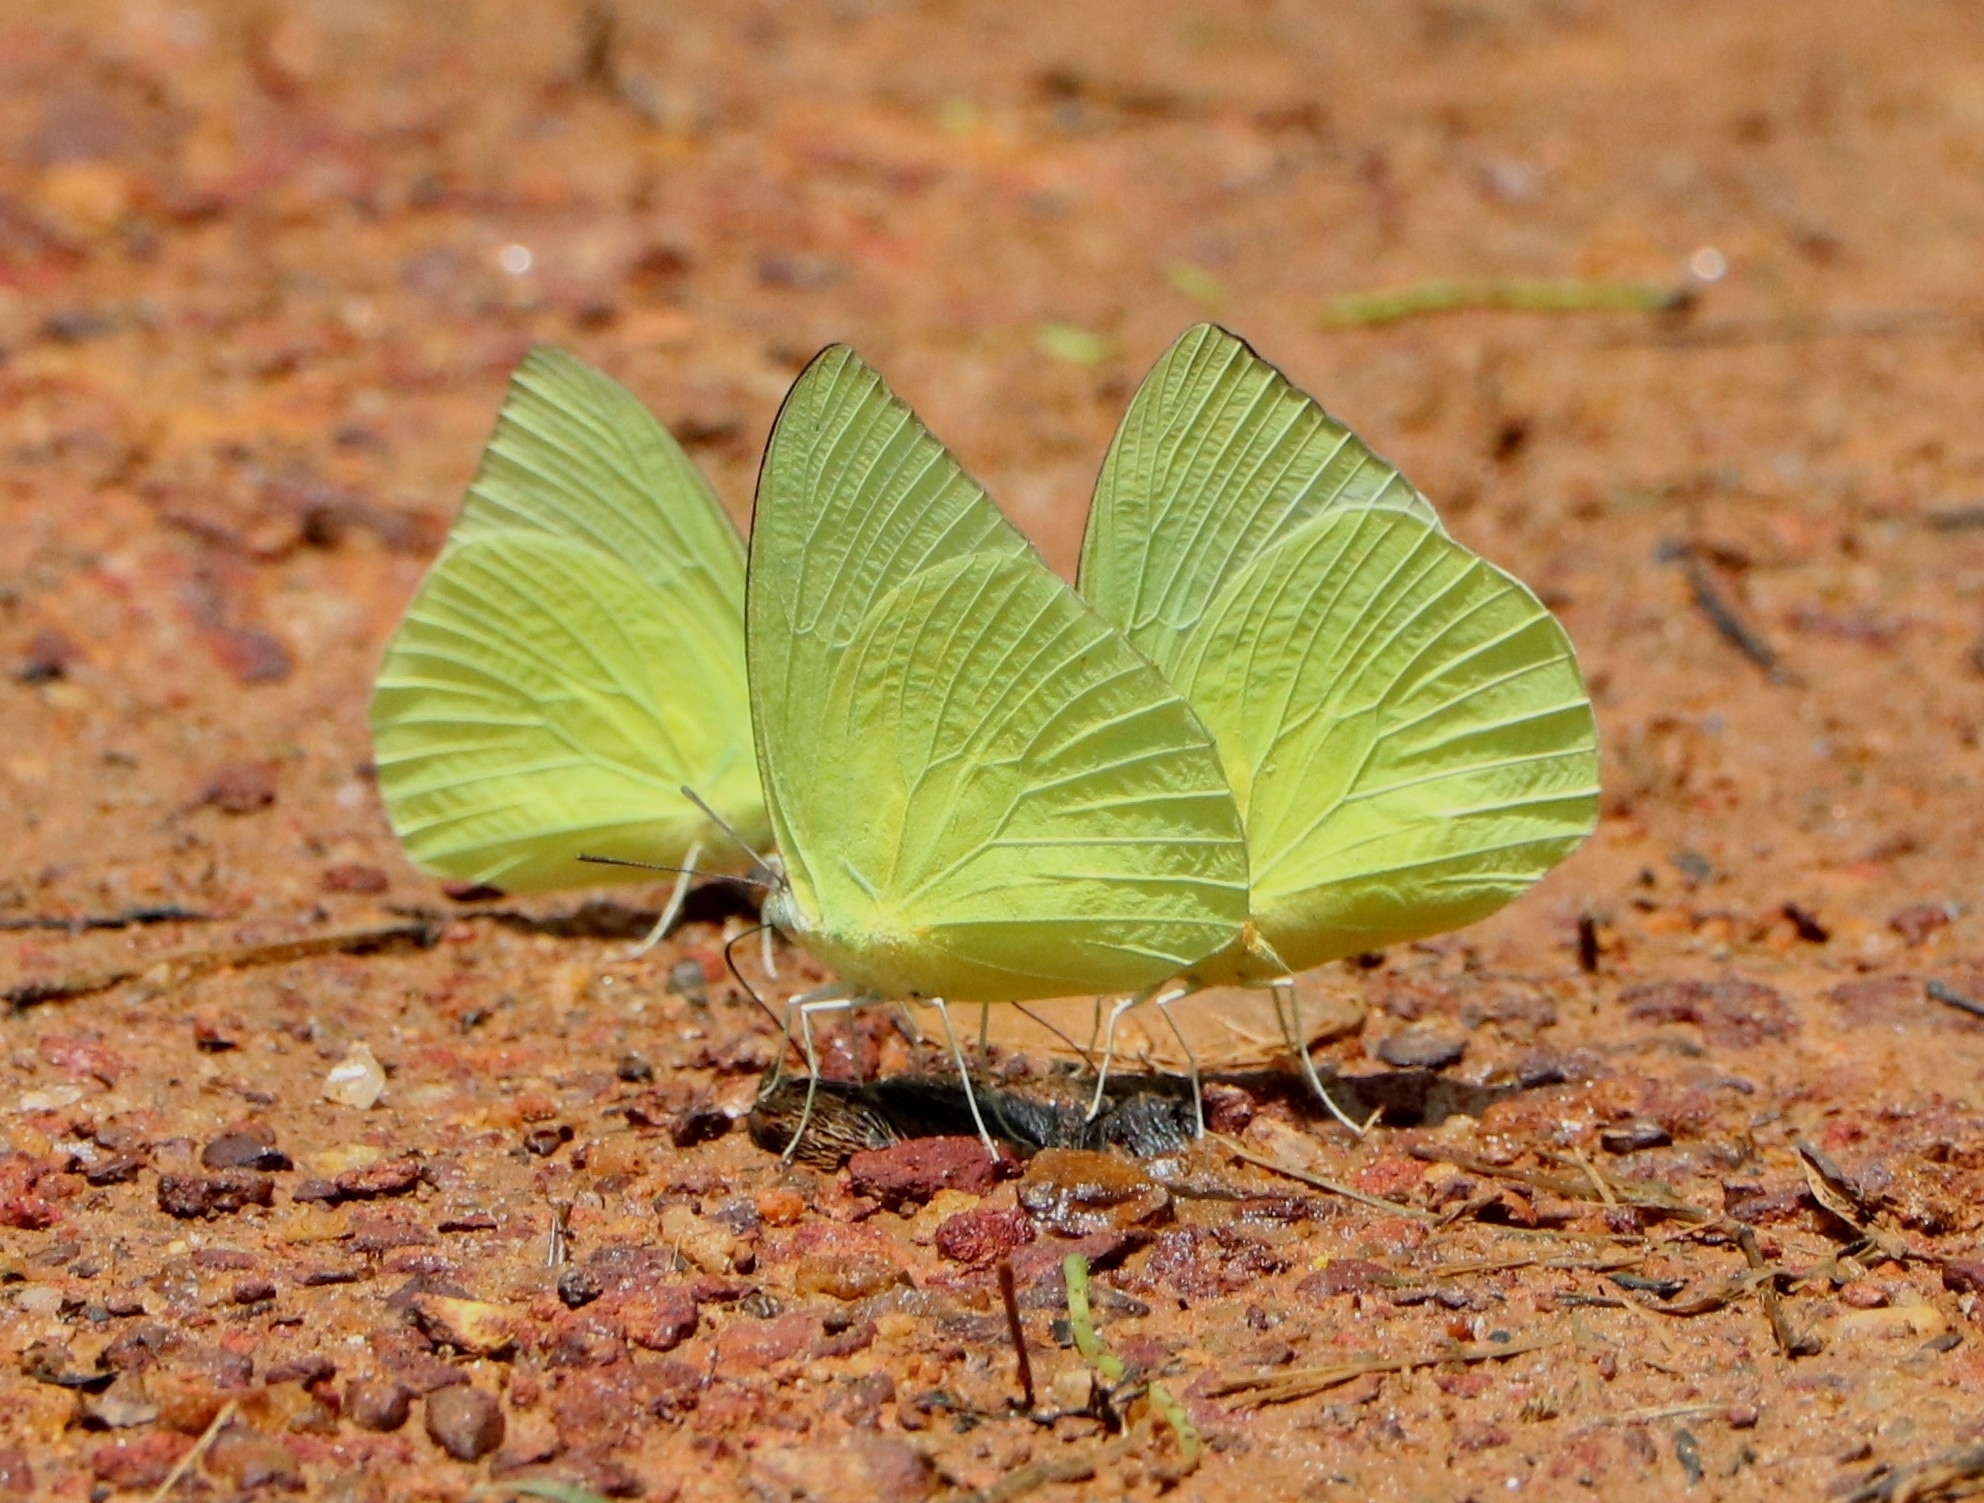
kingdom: Animalia
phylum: Arthropoda
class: Insecta
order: Lepidoptera
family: Pieridae
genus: Catopsilia
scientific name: Catopsilia pomona
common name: Common emigrant
